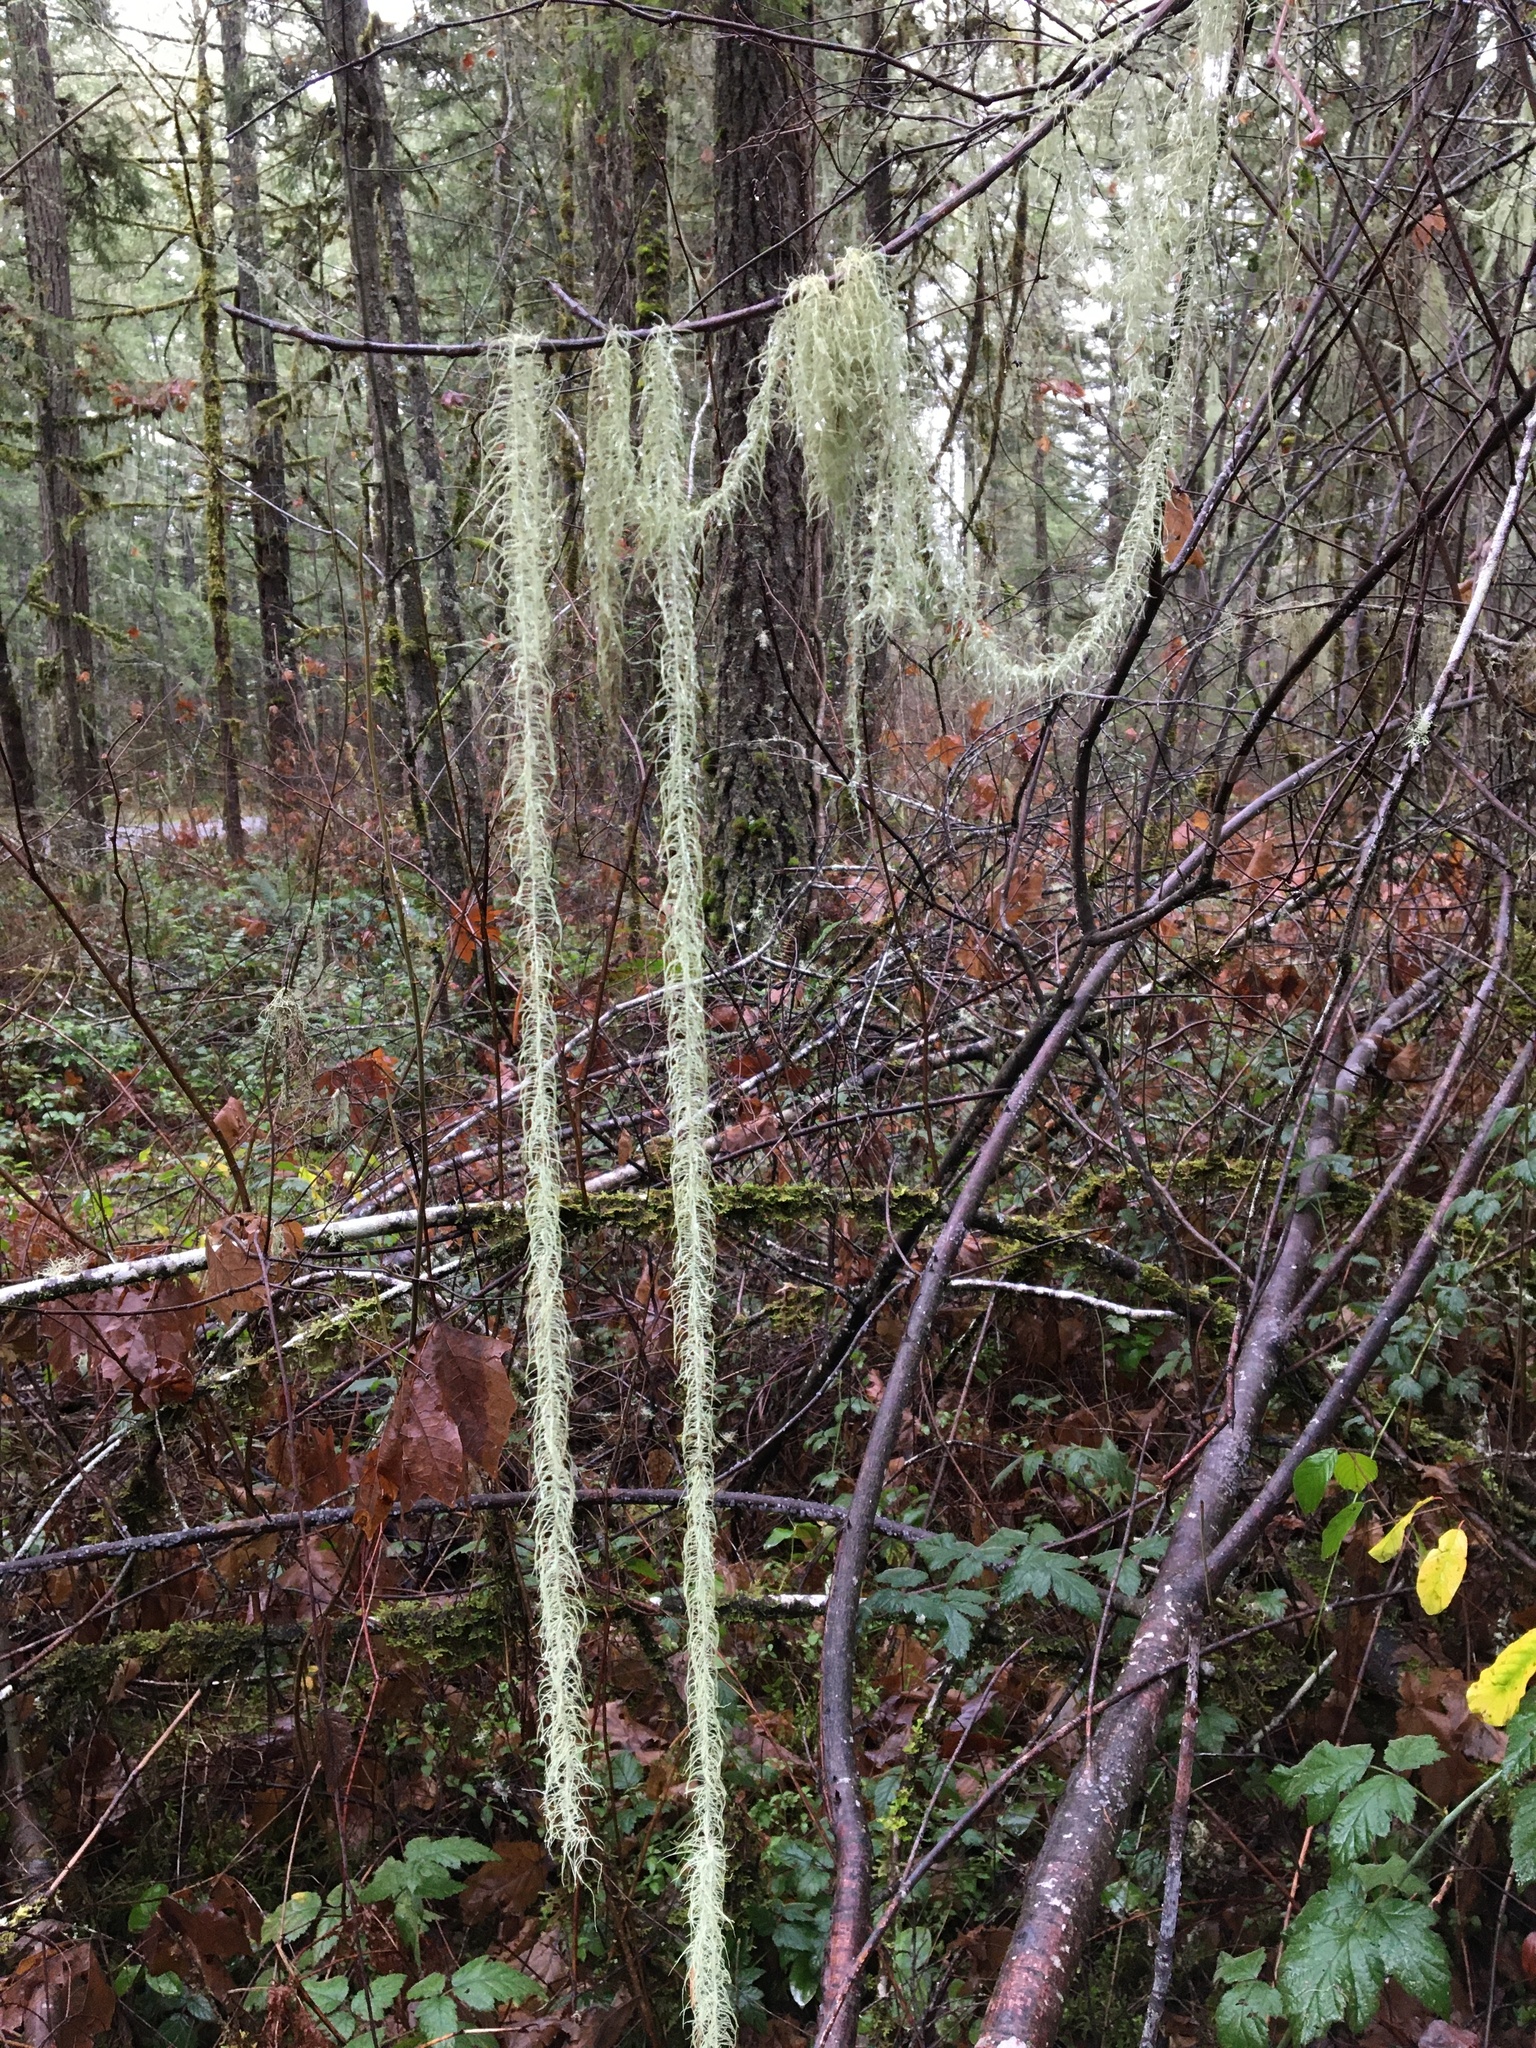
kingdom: Fungi
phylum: Ascomycota
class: Lecanoromycetes
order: Lecanorales
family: Parmeliaceae
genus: Dolichousnea
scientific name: Dolichousnea longissima
